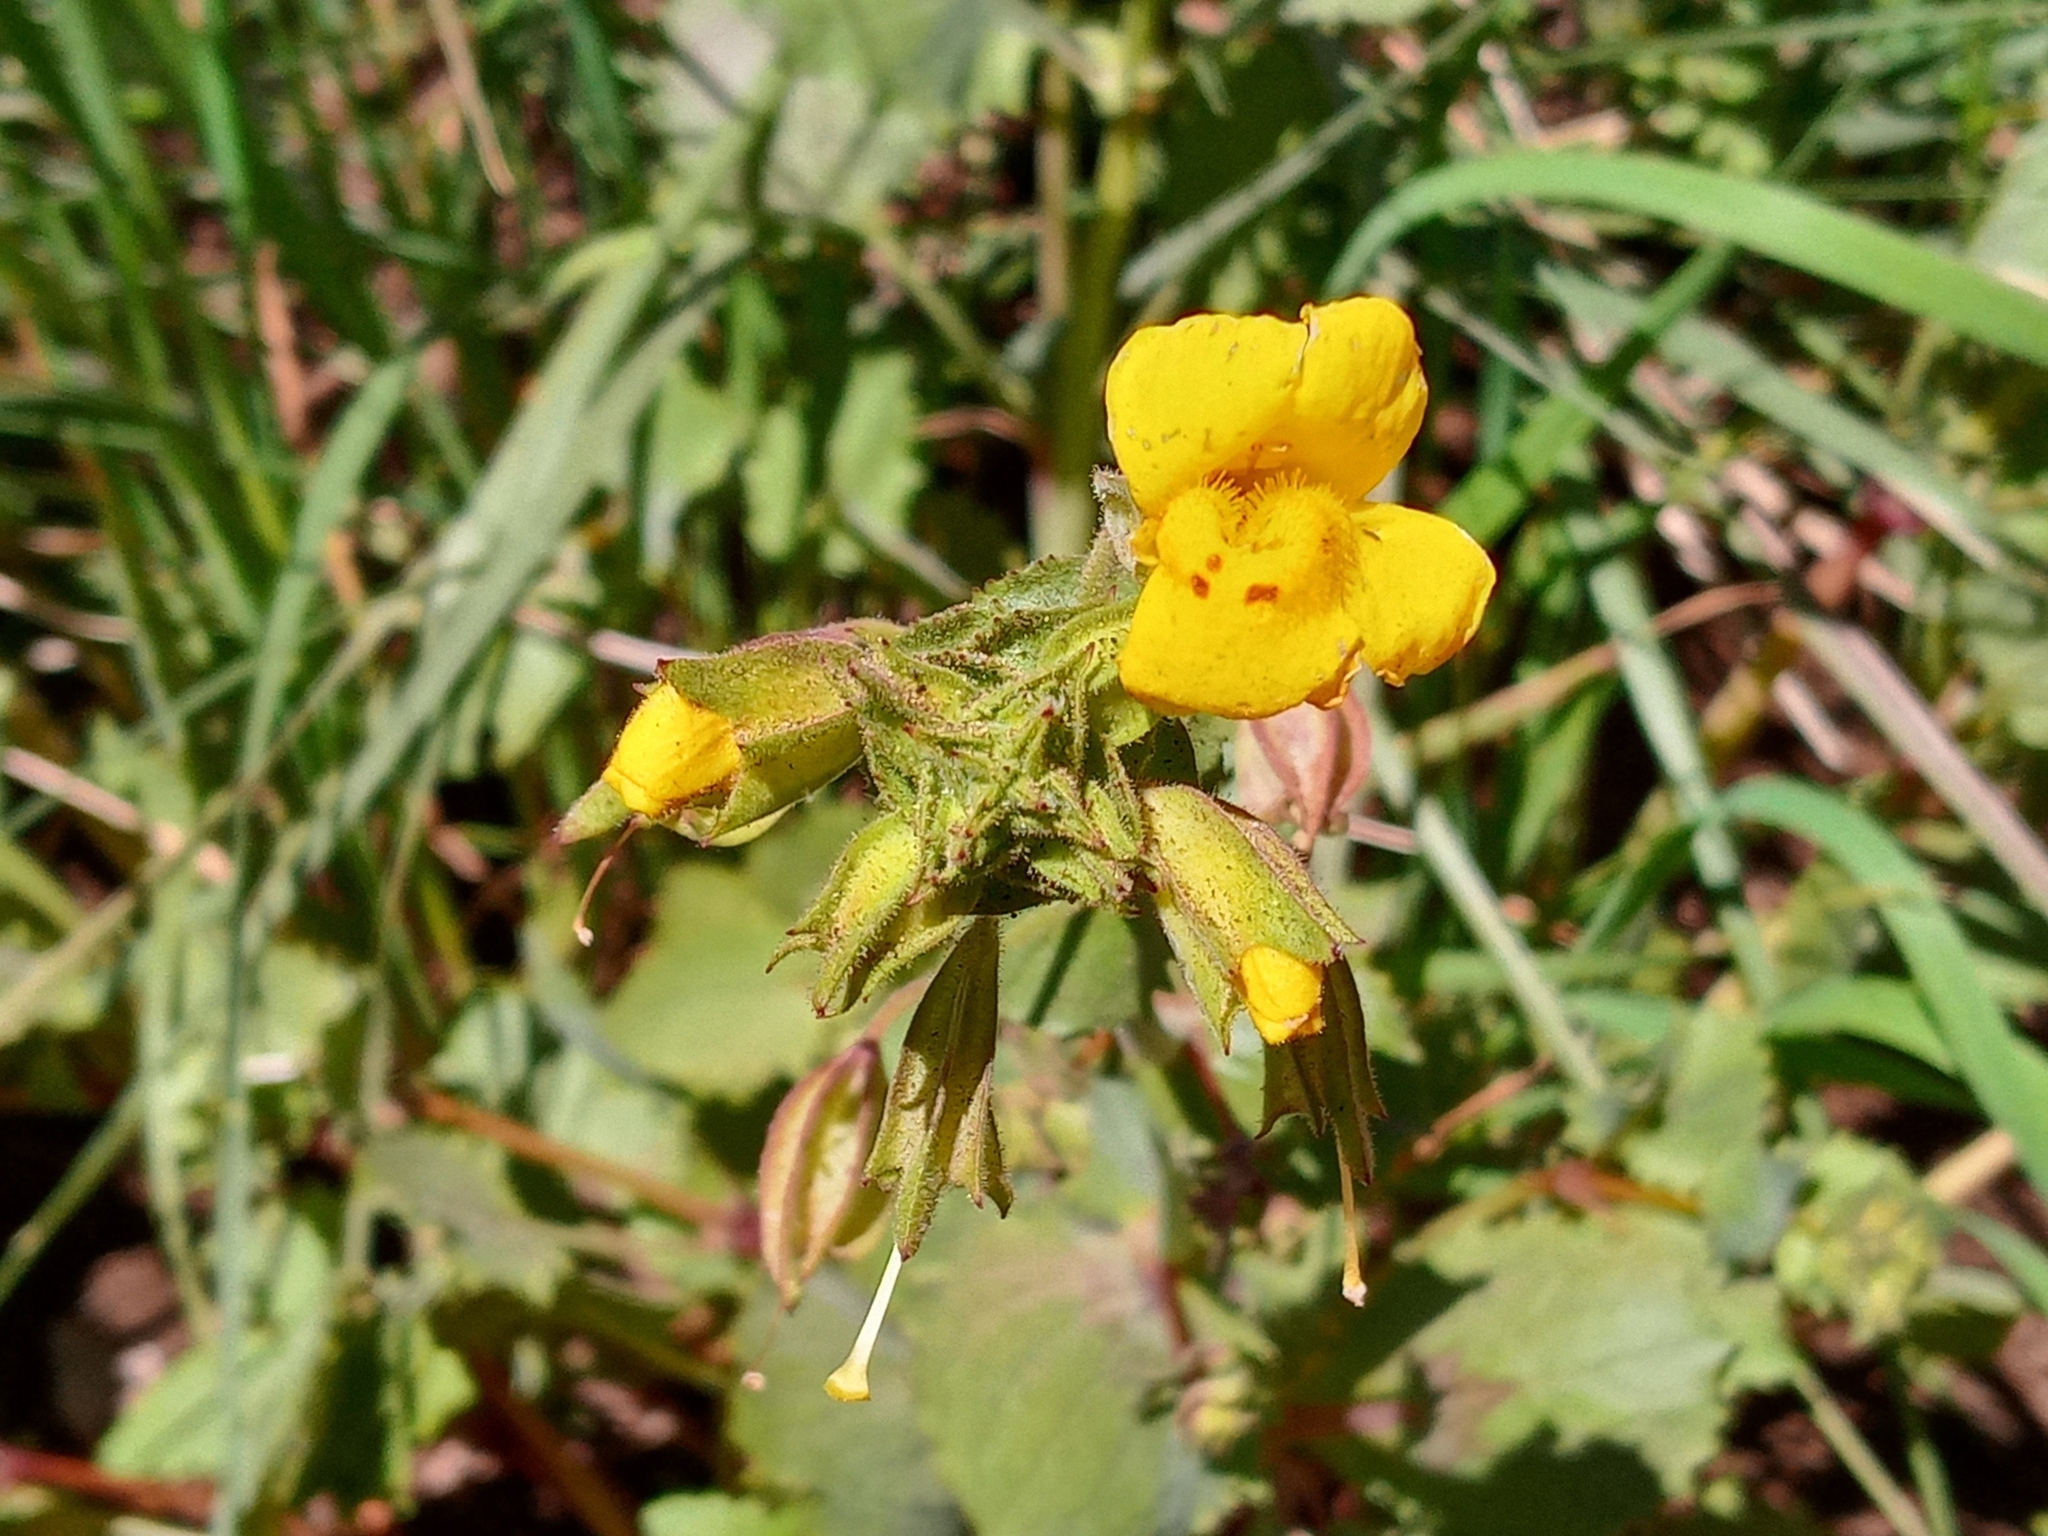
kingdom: Plantae
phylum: Tracheophyta
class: Magnoliopsida
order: Lamiales
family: Phrymaceae
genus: Erythranthe
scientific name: Erythranthe guttata
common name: Monkeyflower
